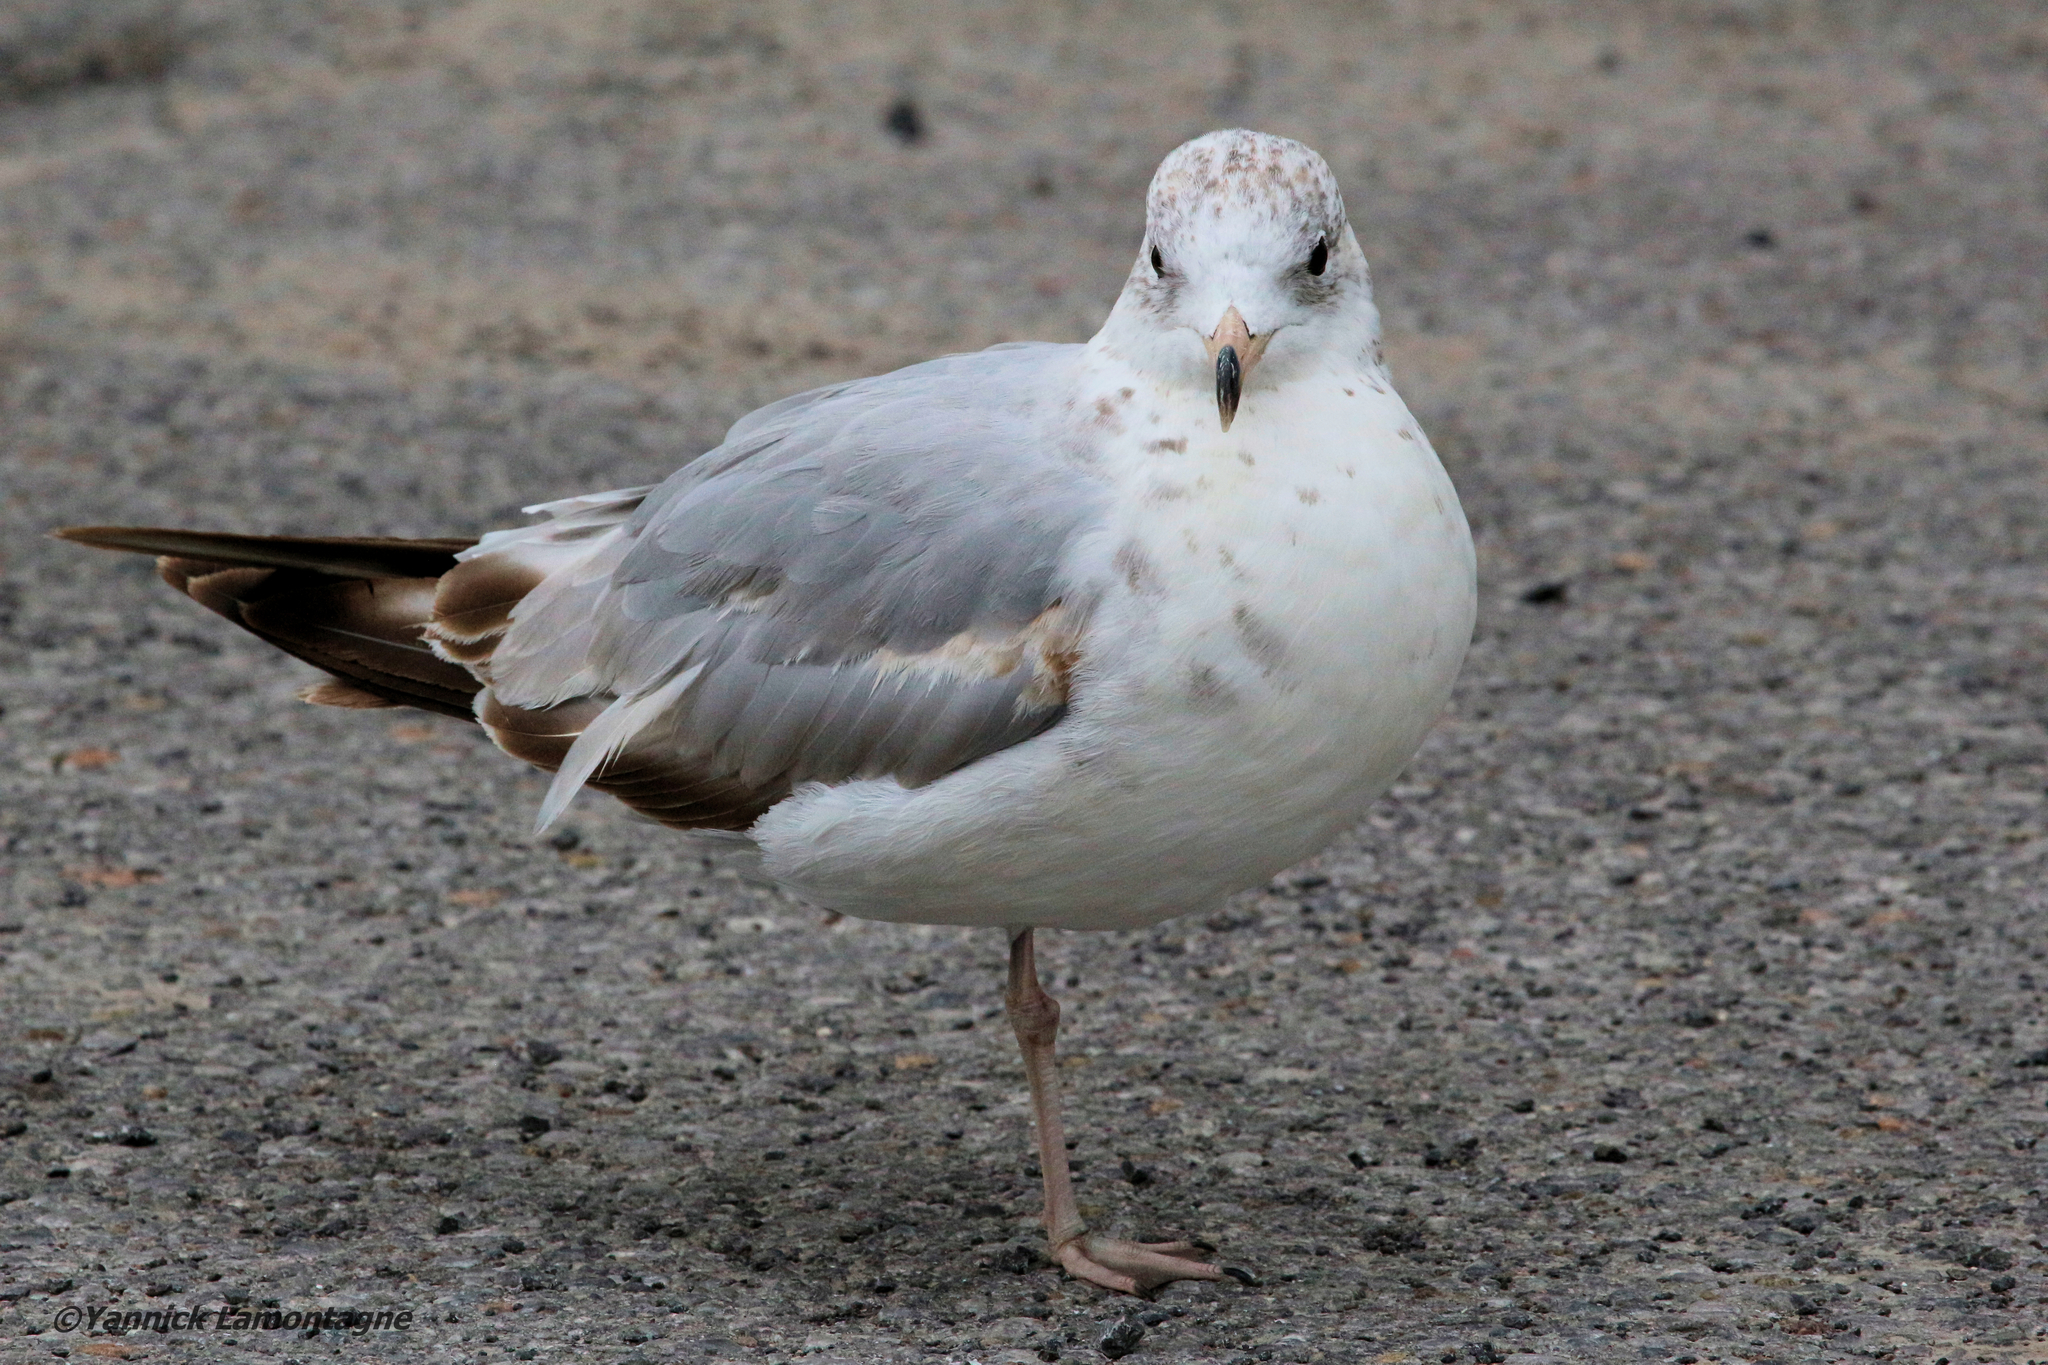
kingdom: Animalia
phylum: Chordata
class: Aves
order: Charadriiformes
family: Laridae
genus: Larus
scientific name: Larus delawarensis
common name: Ring-billed gull
